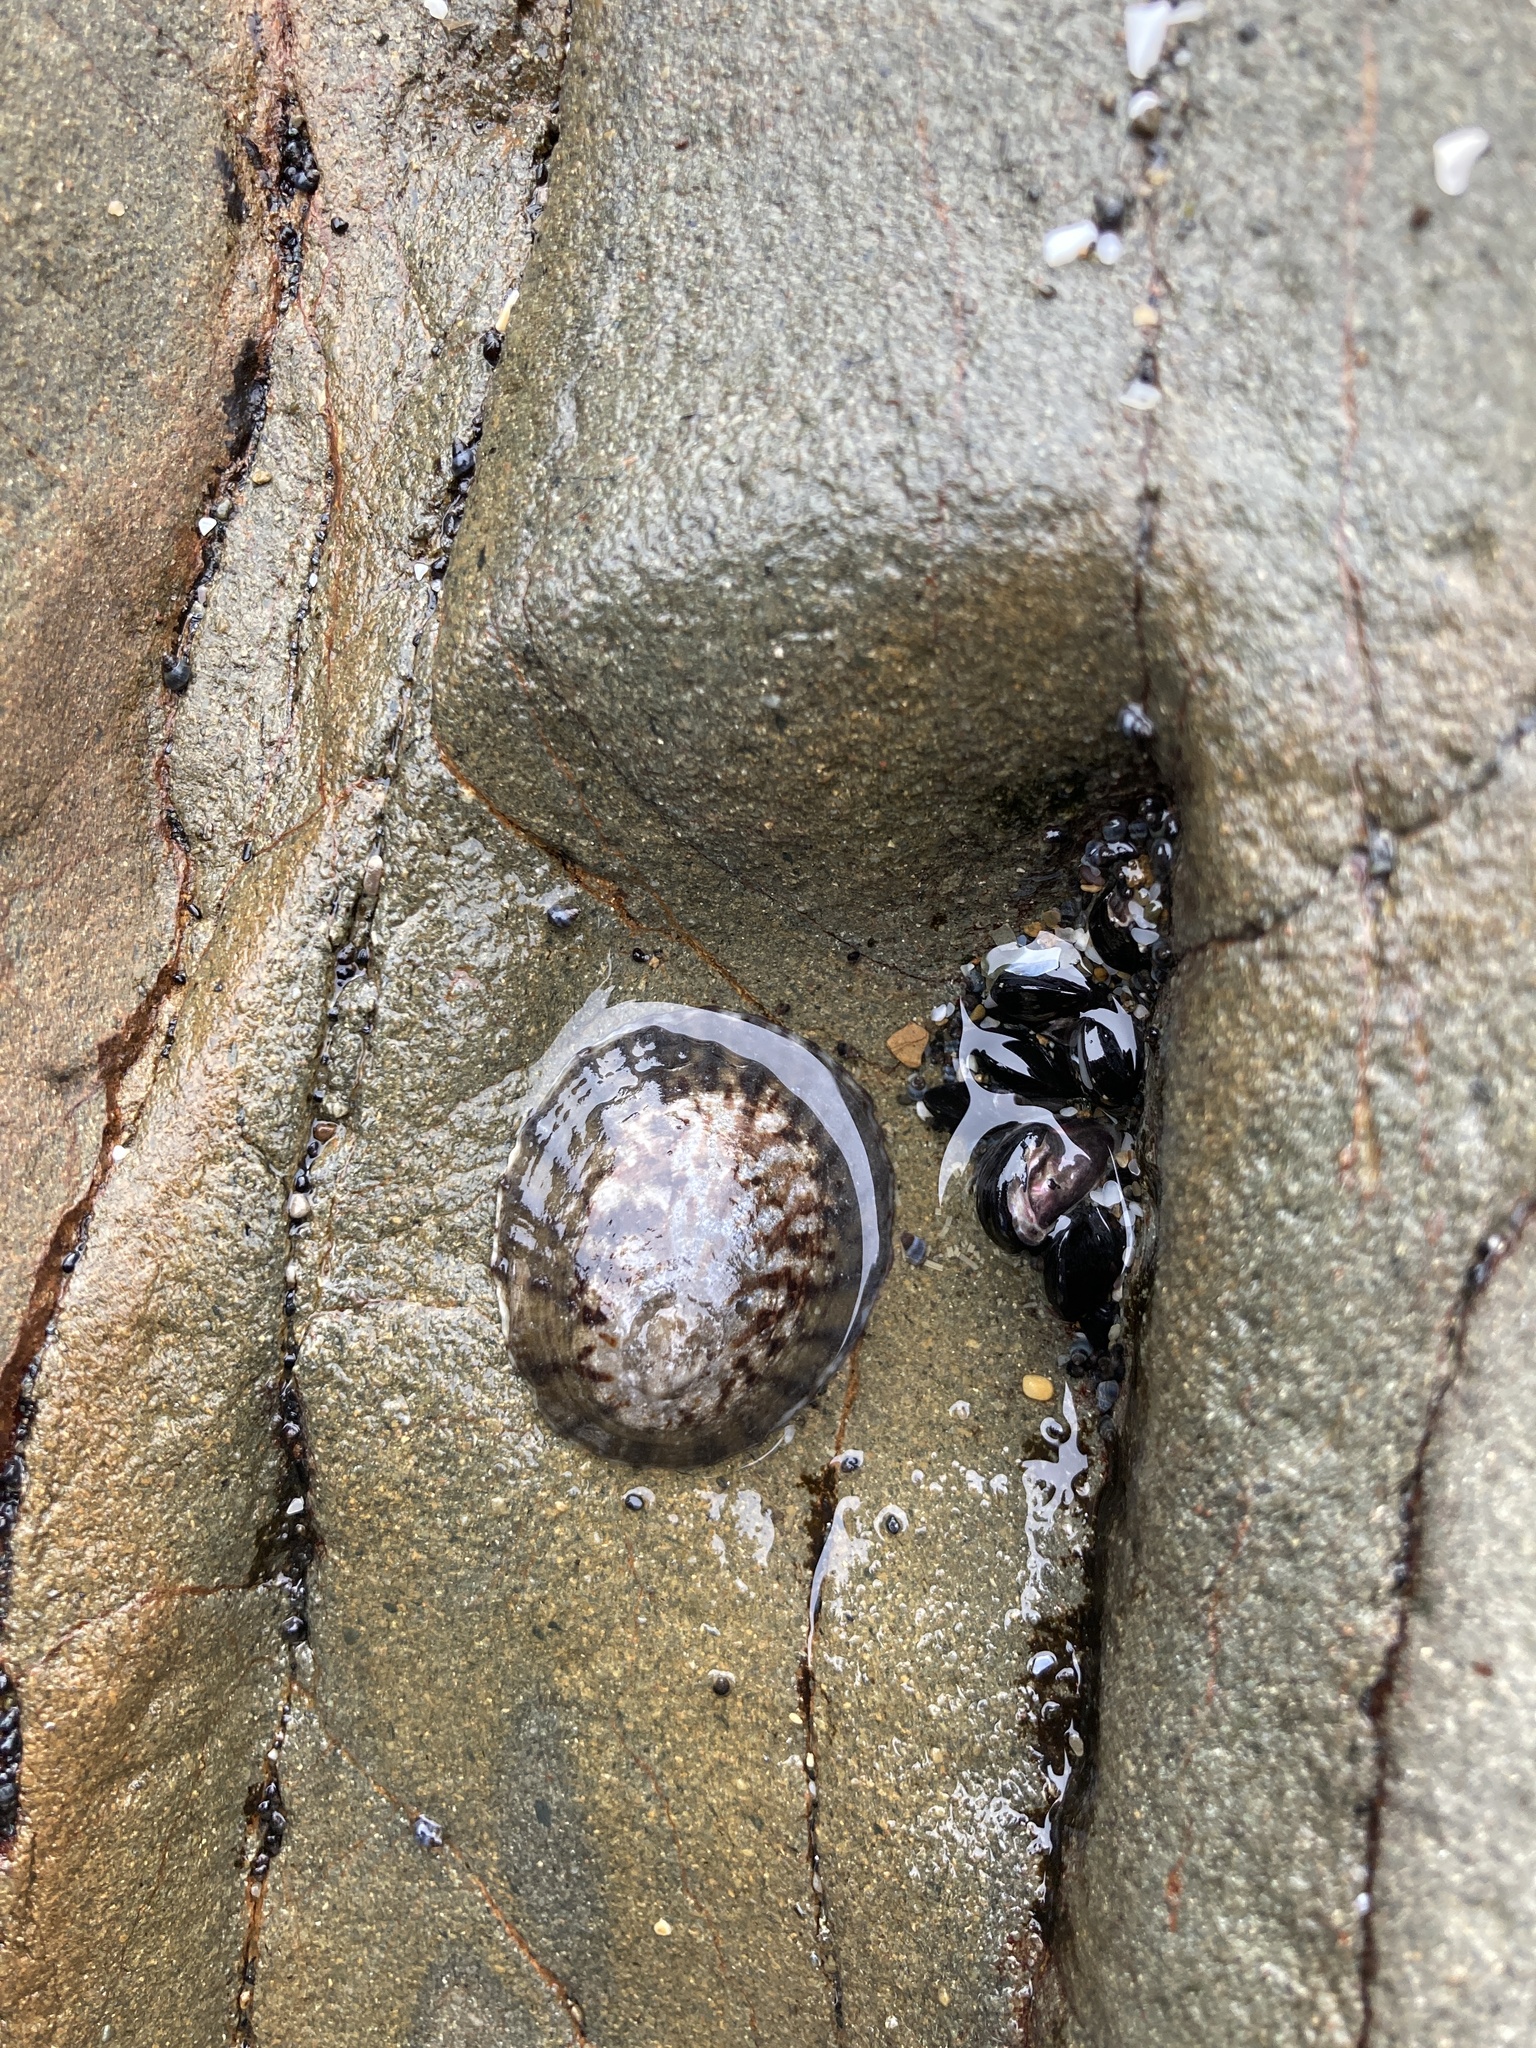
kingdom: Animalia
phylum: Mollusca
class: Gastropoda
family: Nacellidae
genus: Cellana
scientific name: Cellana radians
